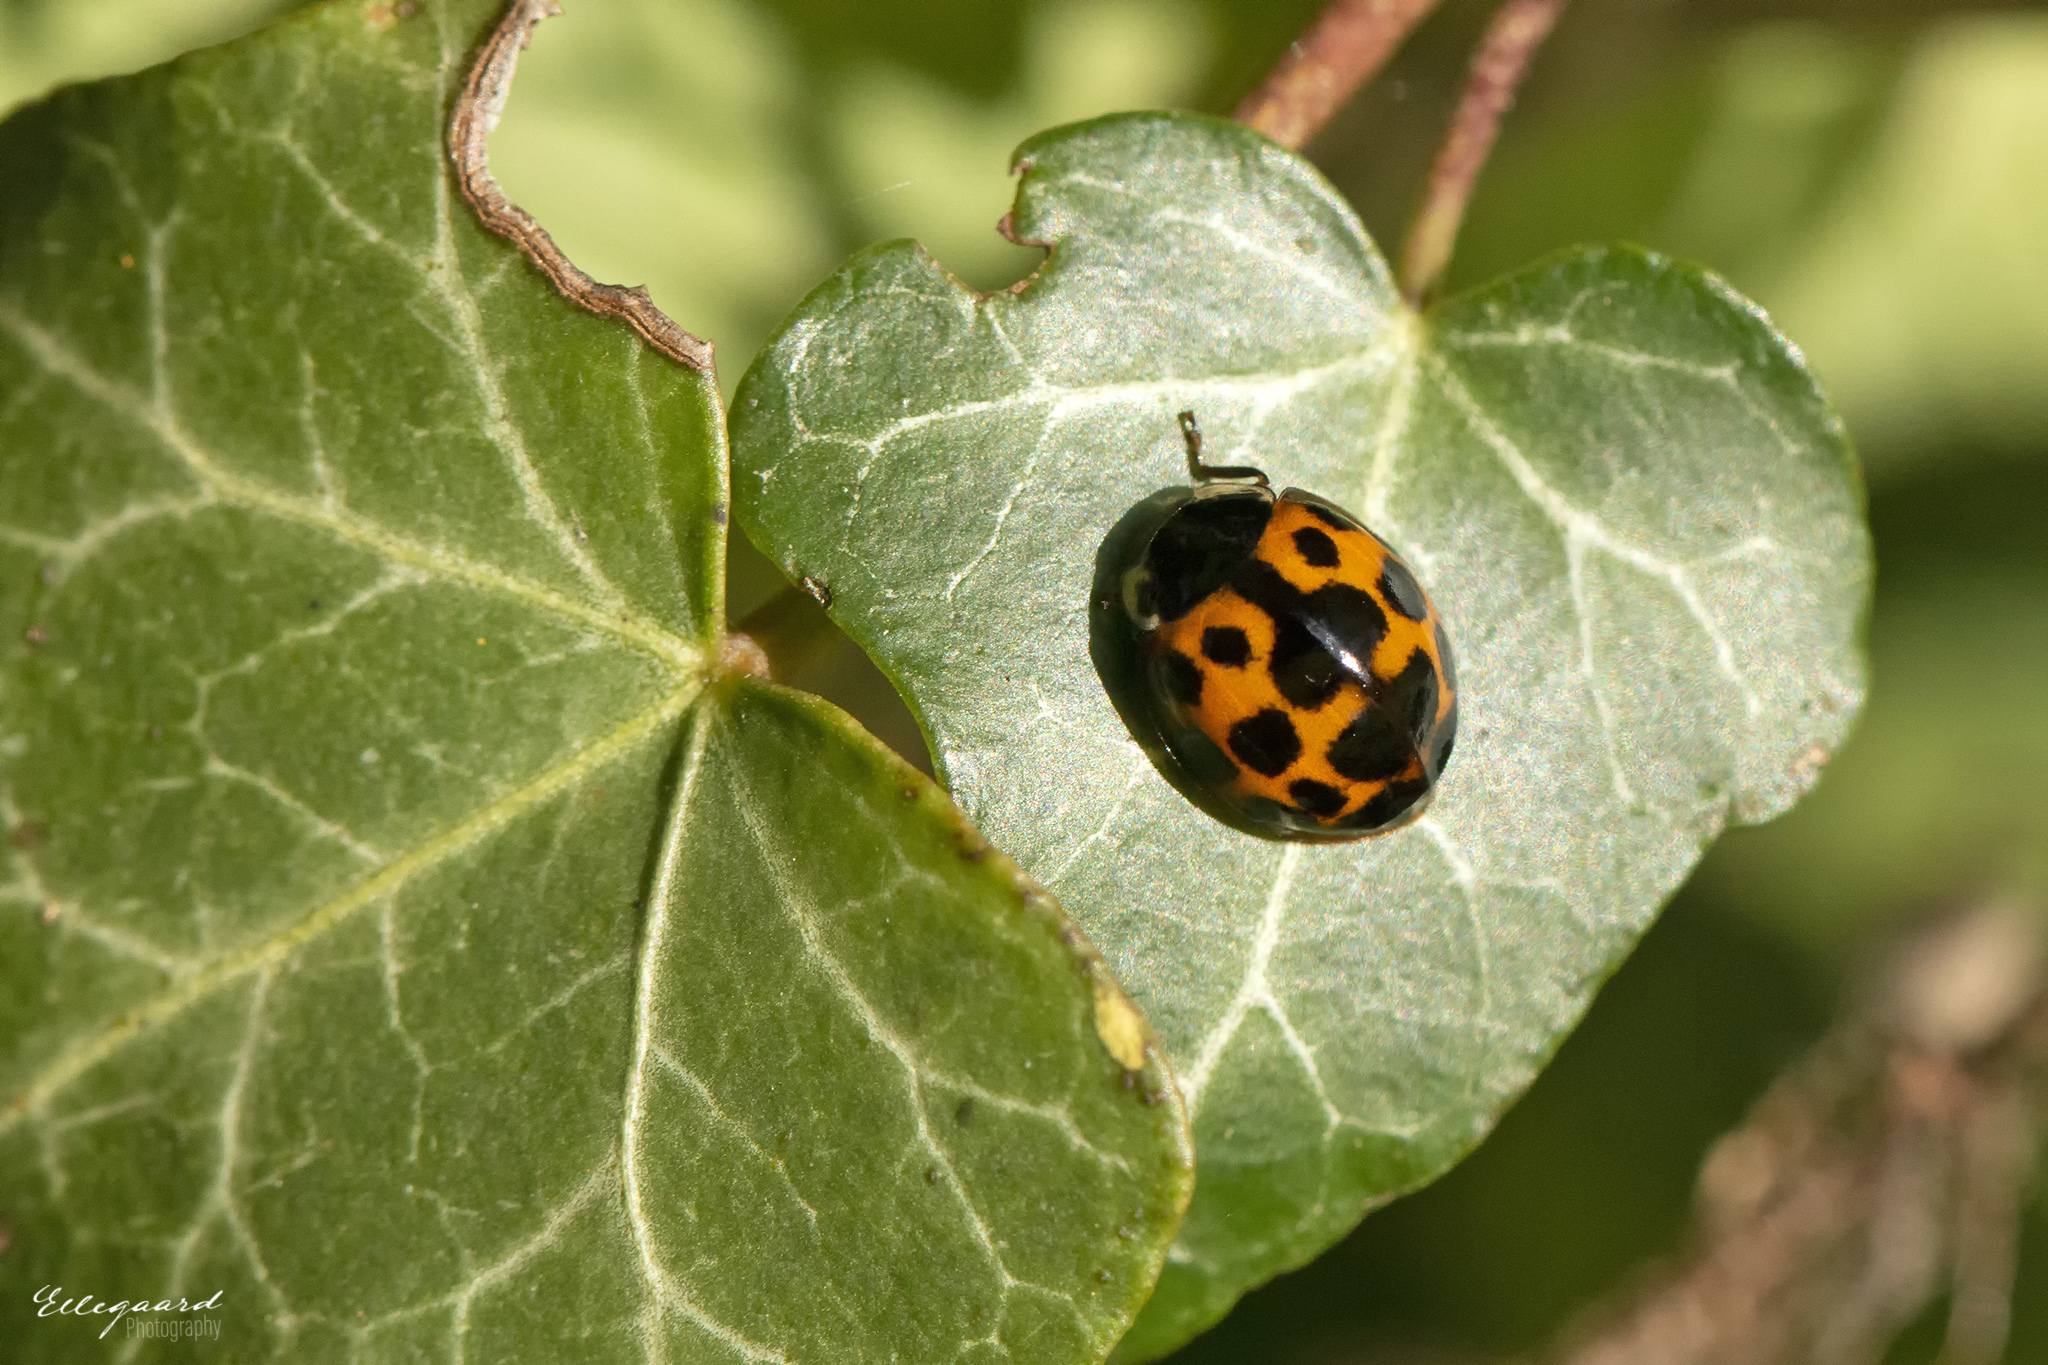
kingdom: Animalia
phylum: Arthropoda
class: Insecta
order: Coleoptera
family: Coccinellidae
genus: Harmonia
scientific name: Harmonia axyridis
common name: Harlequin ladybird
